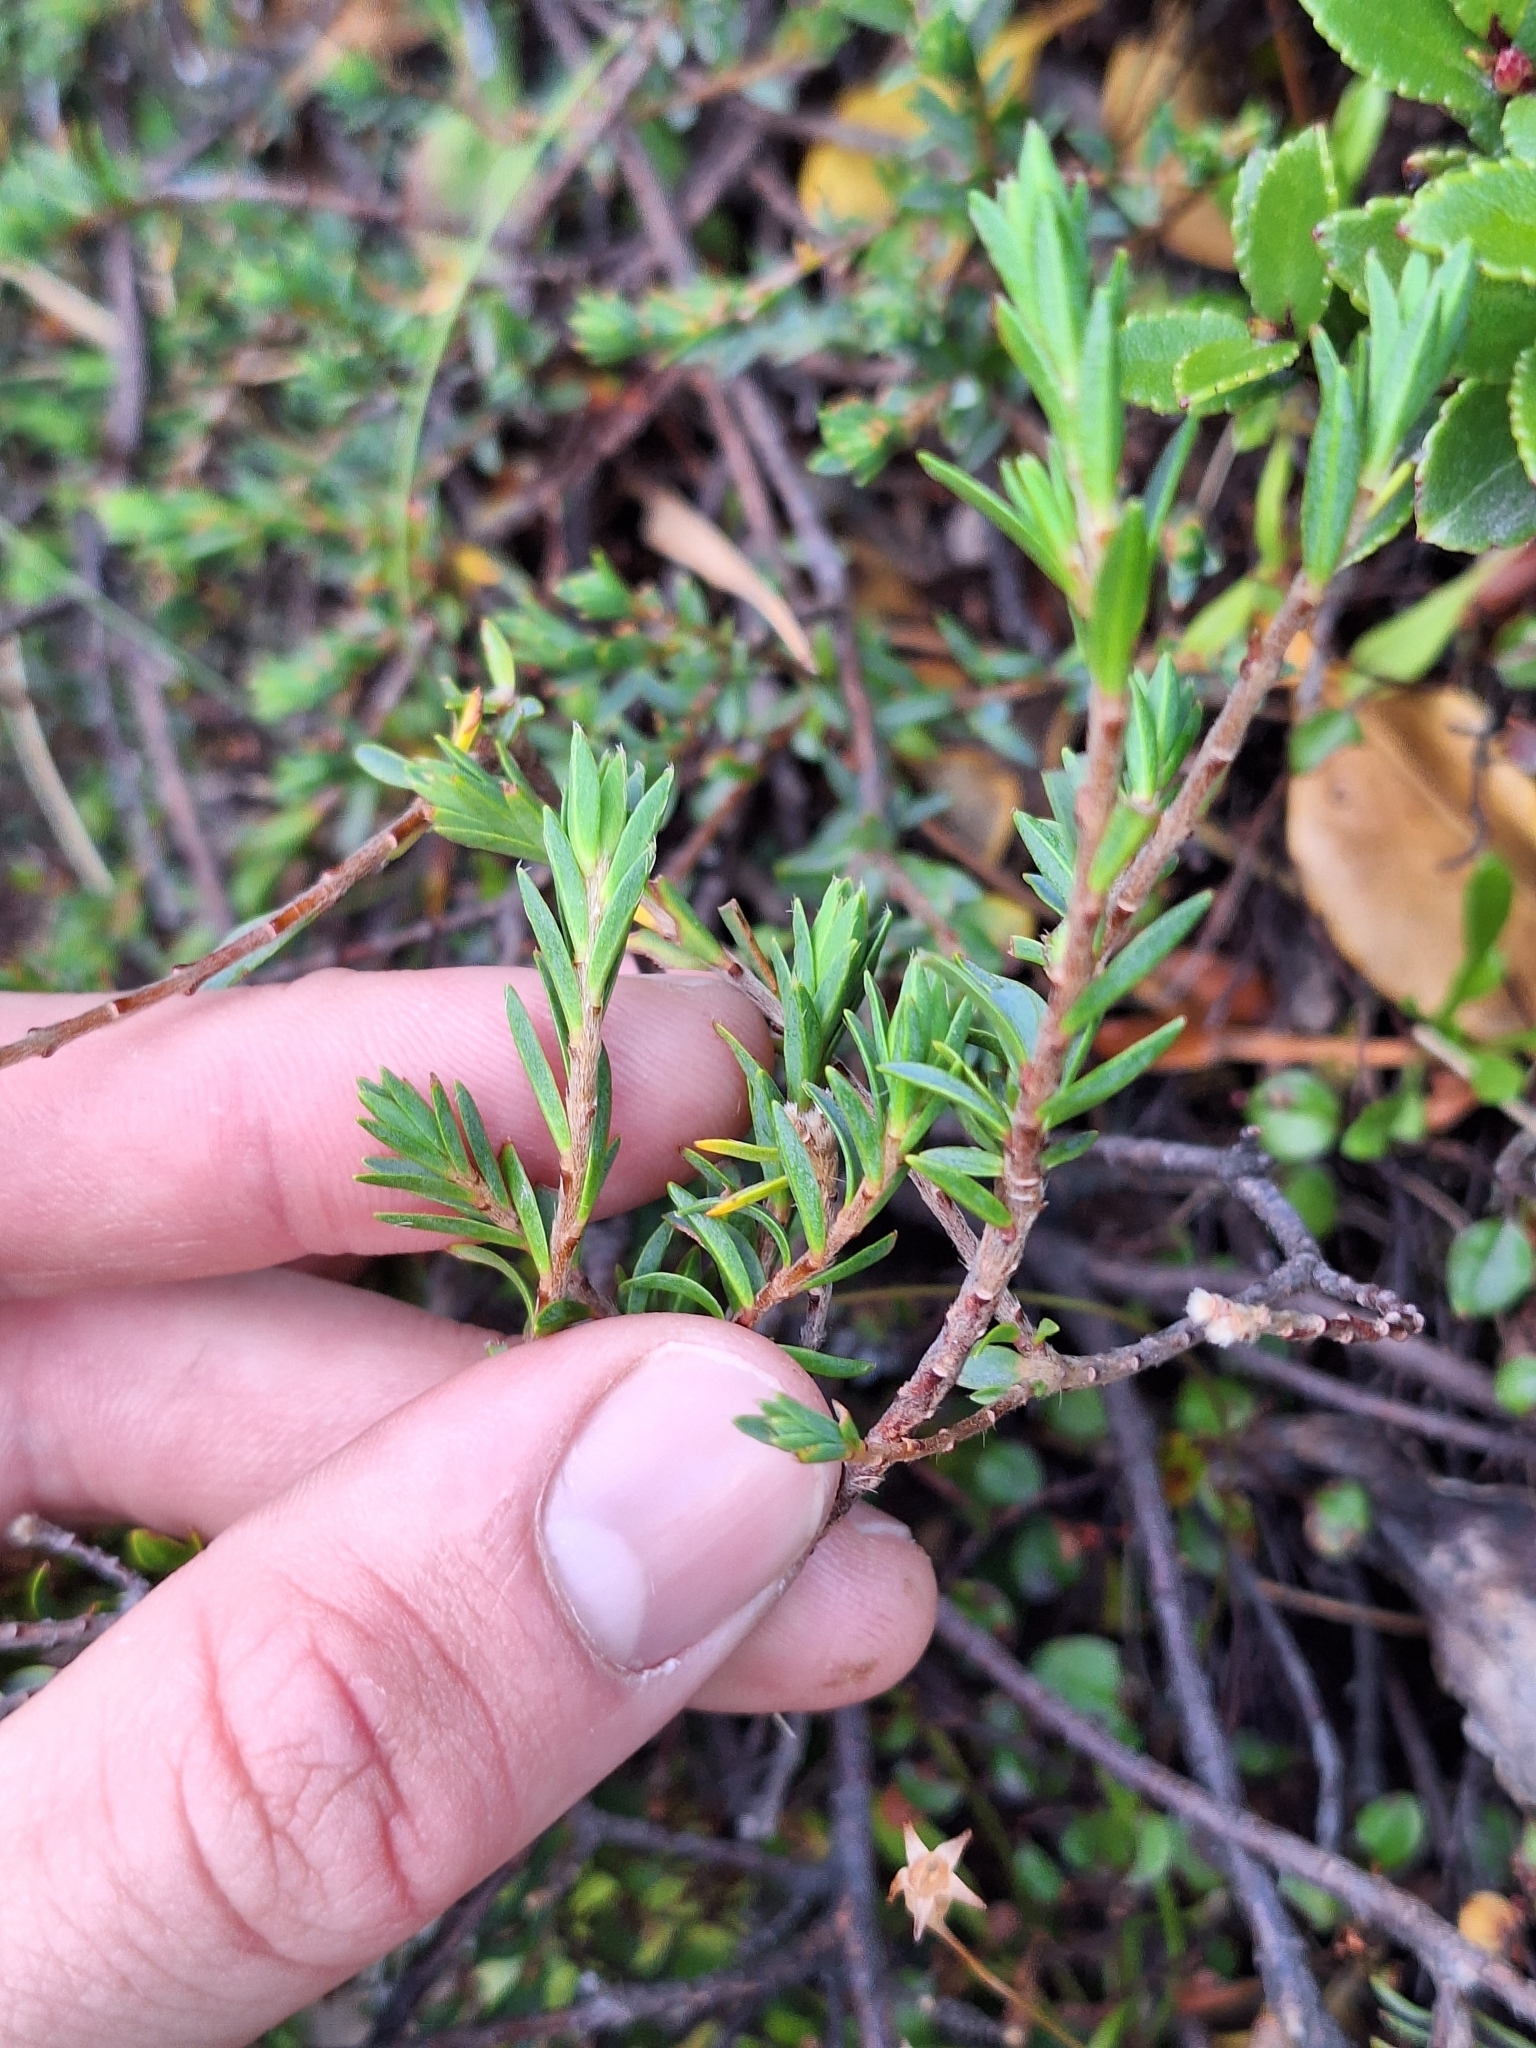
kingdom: Plantae
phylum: Tracheophyta
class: Magnoliopsida
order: Malvales
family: Thymelaeaceae
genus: Pimelea
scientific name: Pimelea oreophila
